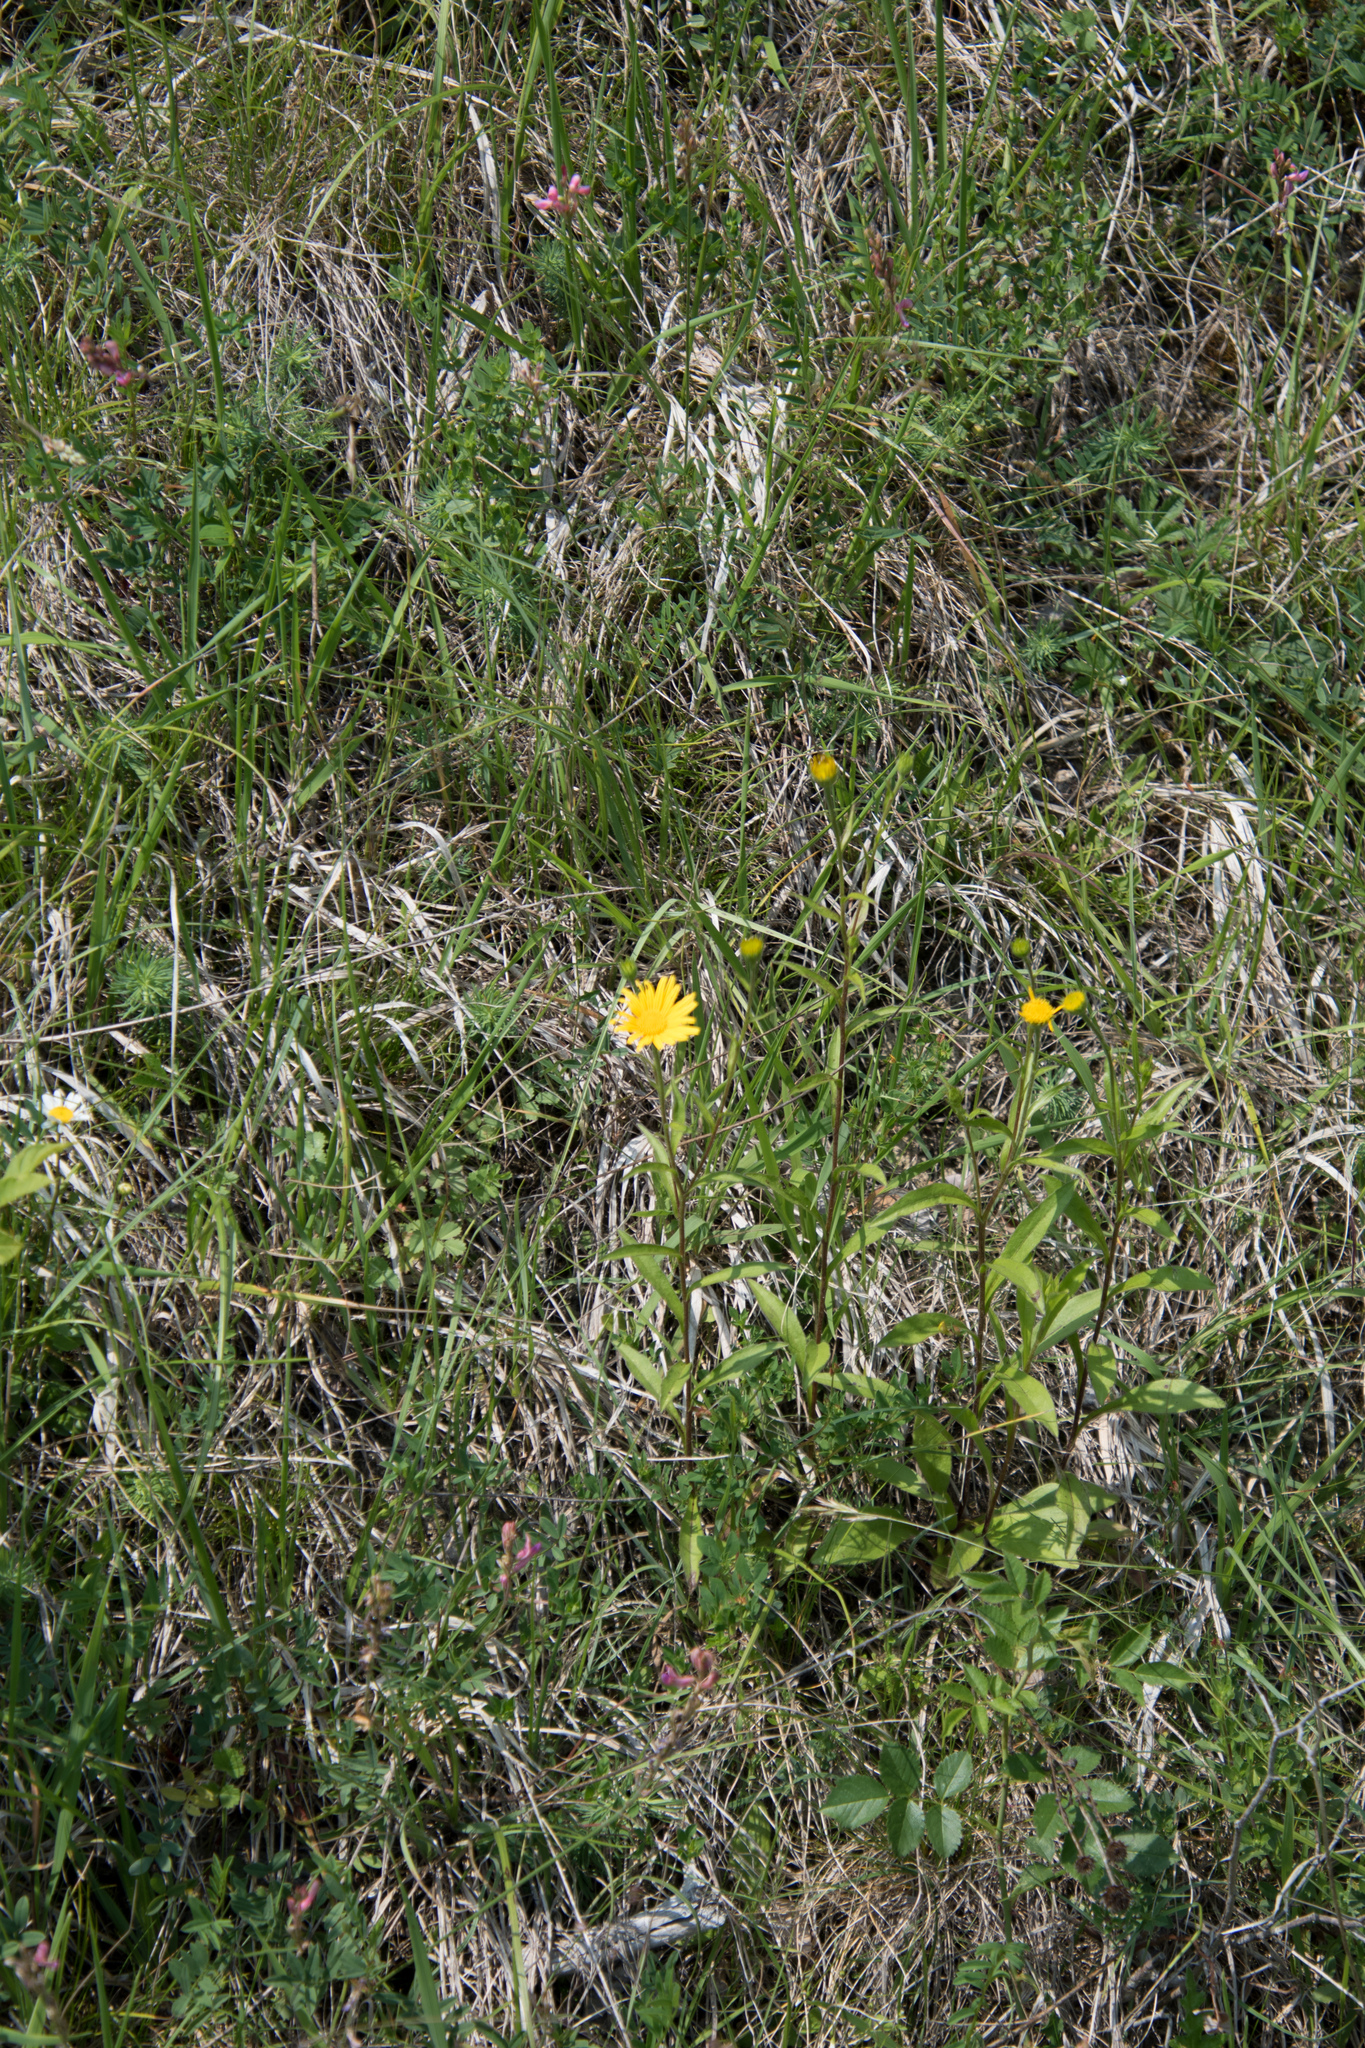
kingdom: Plantae
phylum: Tracheophyta
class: Magnoliopsida
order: Asterales
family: Asteraceae
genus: Buphthalmum
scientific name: Buphthalmum salicifolium
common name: Willow-leaved yellow-oxeye
